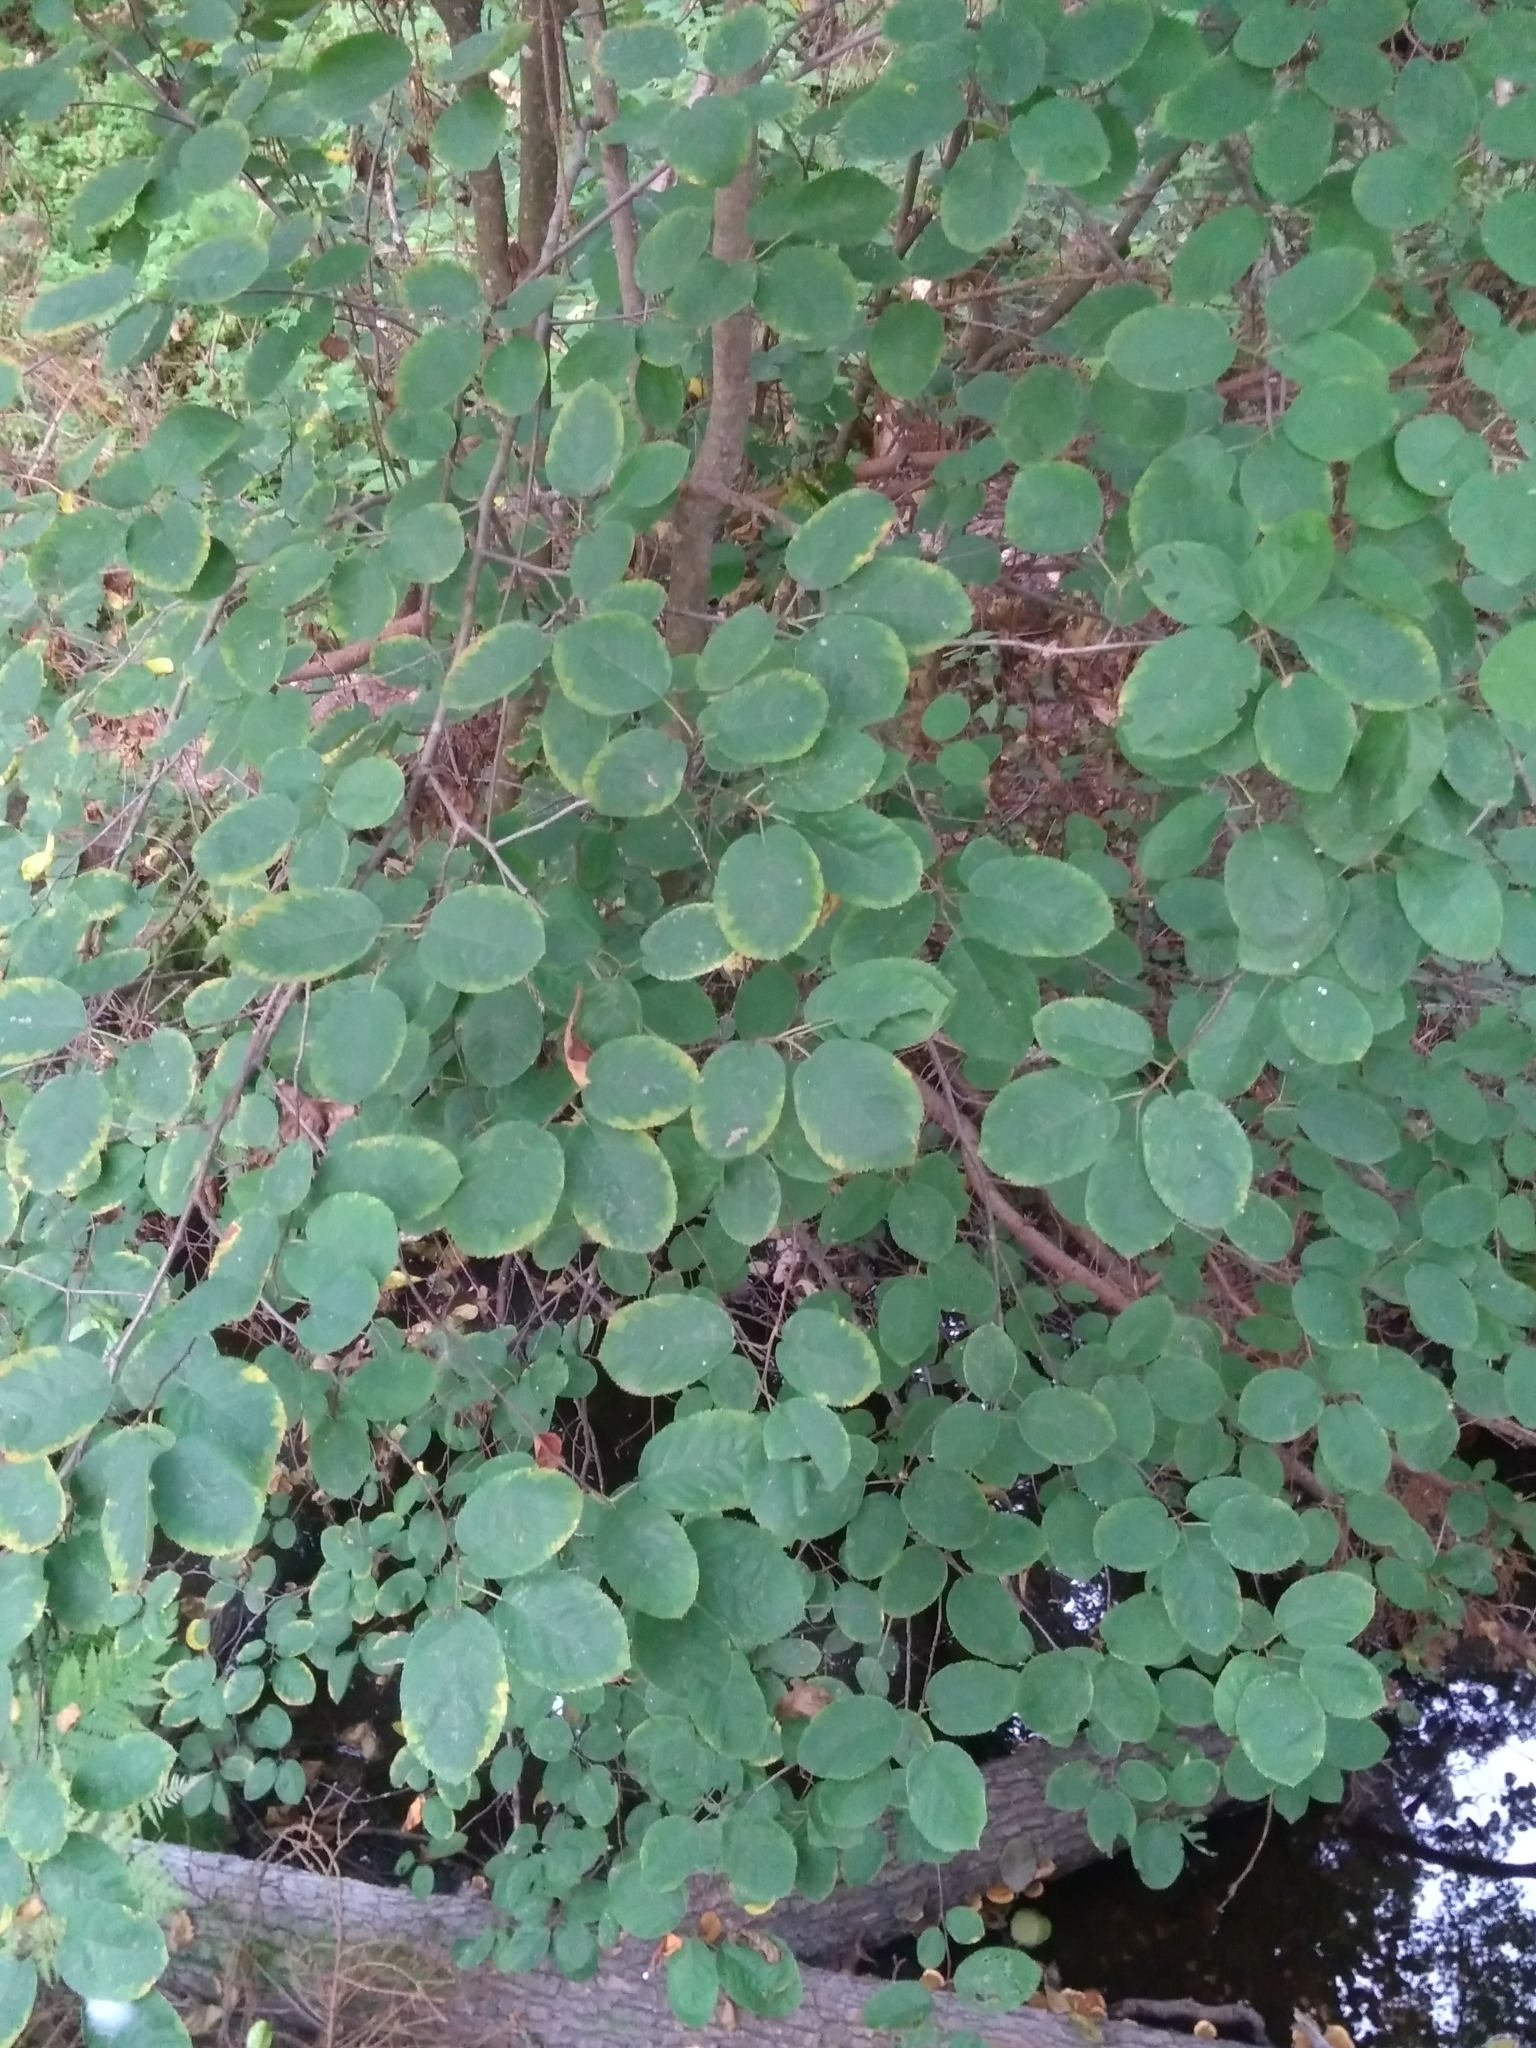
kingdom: Plantae
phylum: Tracheophyta
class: Magnoliopsida
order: Rosales
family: Rosaceae
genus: Amelanchier
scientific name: Amelanchier
